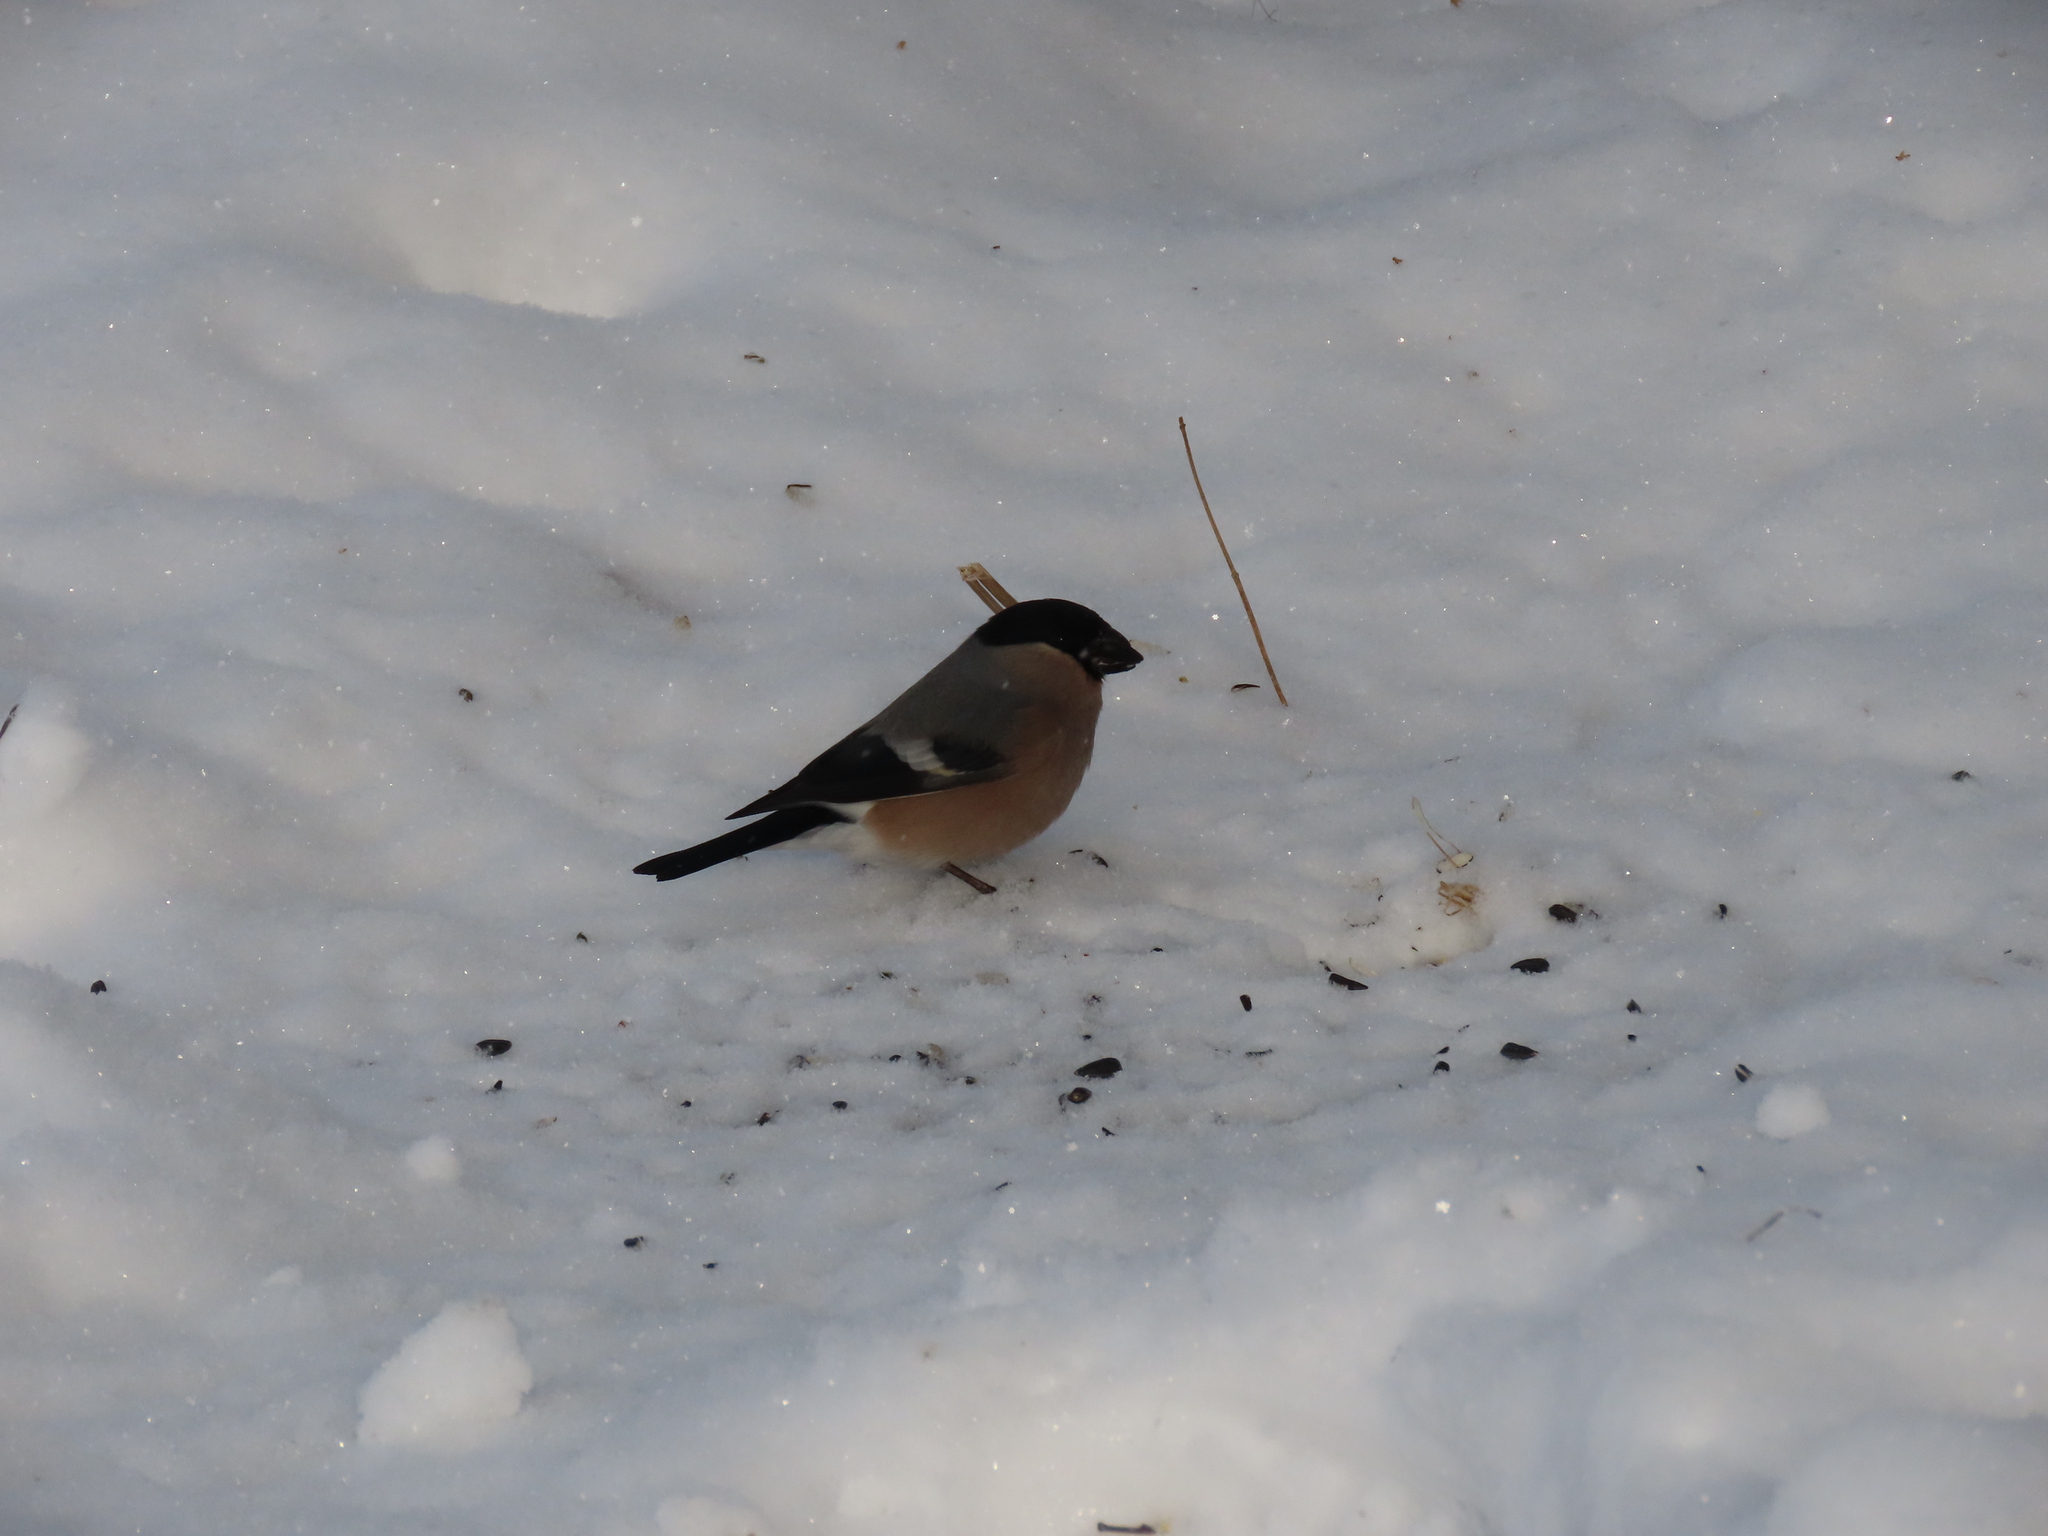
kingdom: Animalia
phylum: Chordata
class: Aves
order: Passeriformes
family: Fringillidae
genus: Pyrrhula
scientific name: Pyrrhula pyrrhula
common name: Eurasian bullfinch
